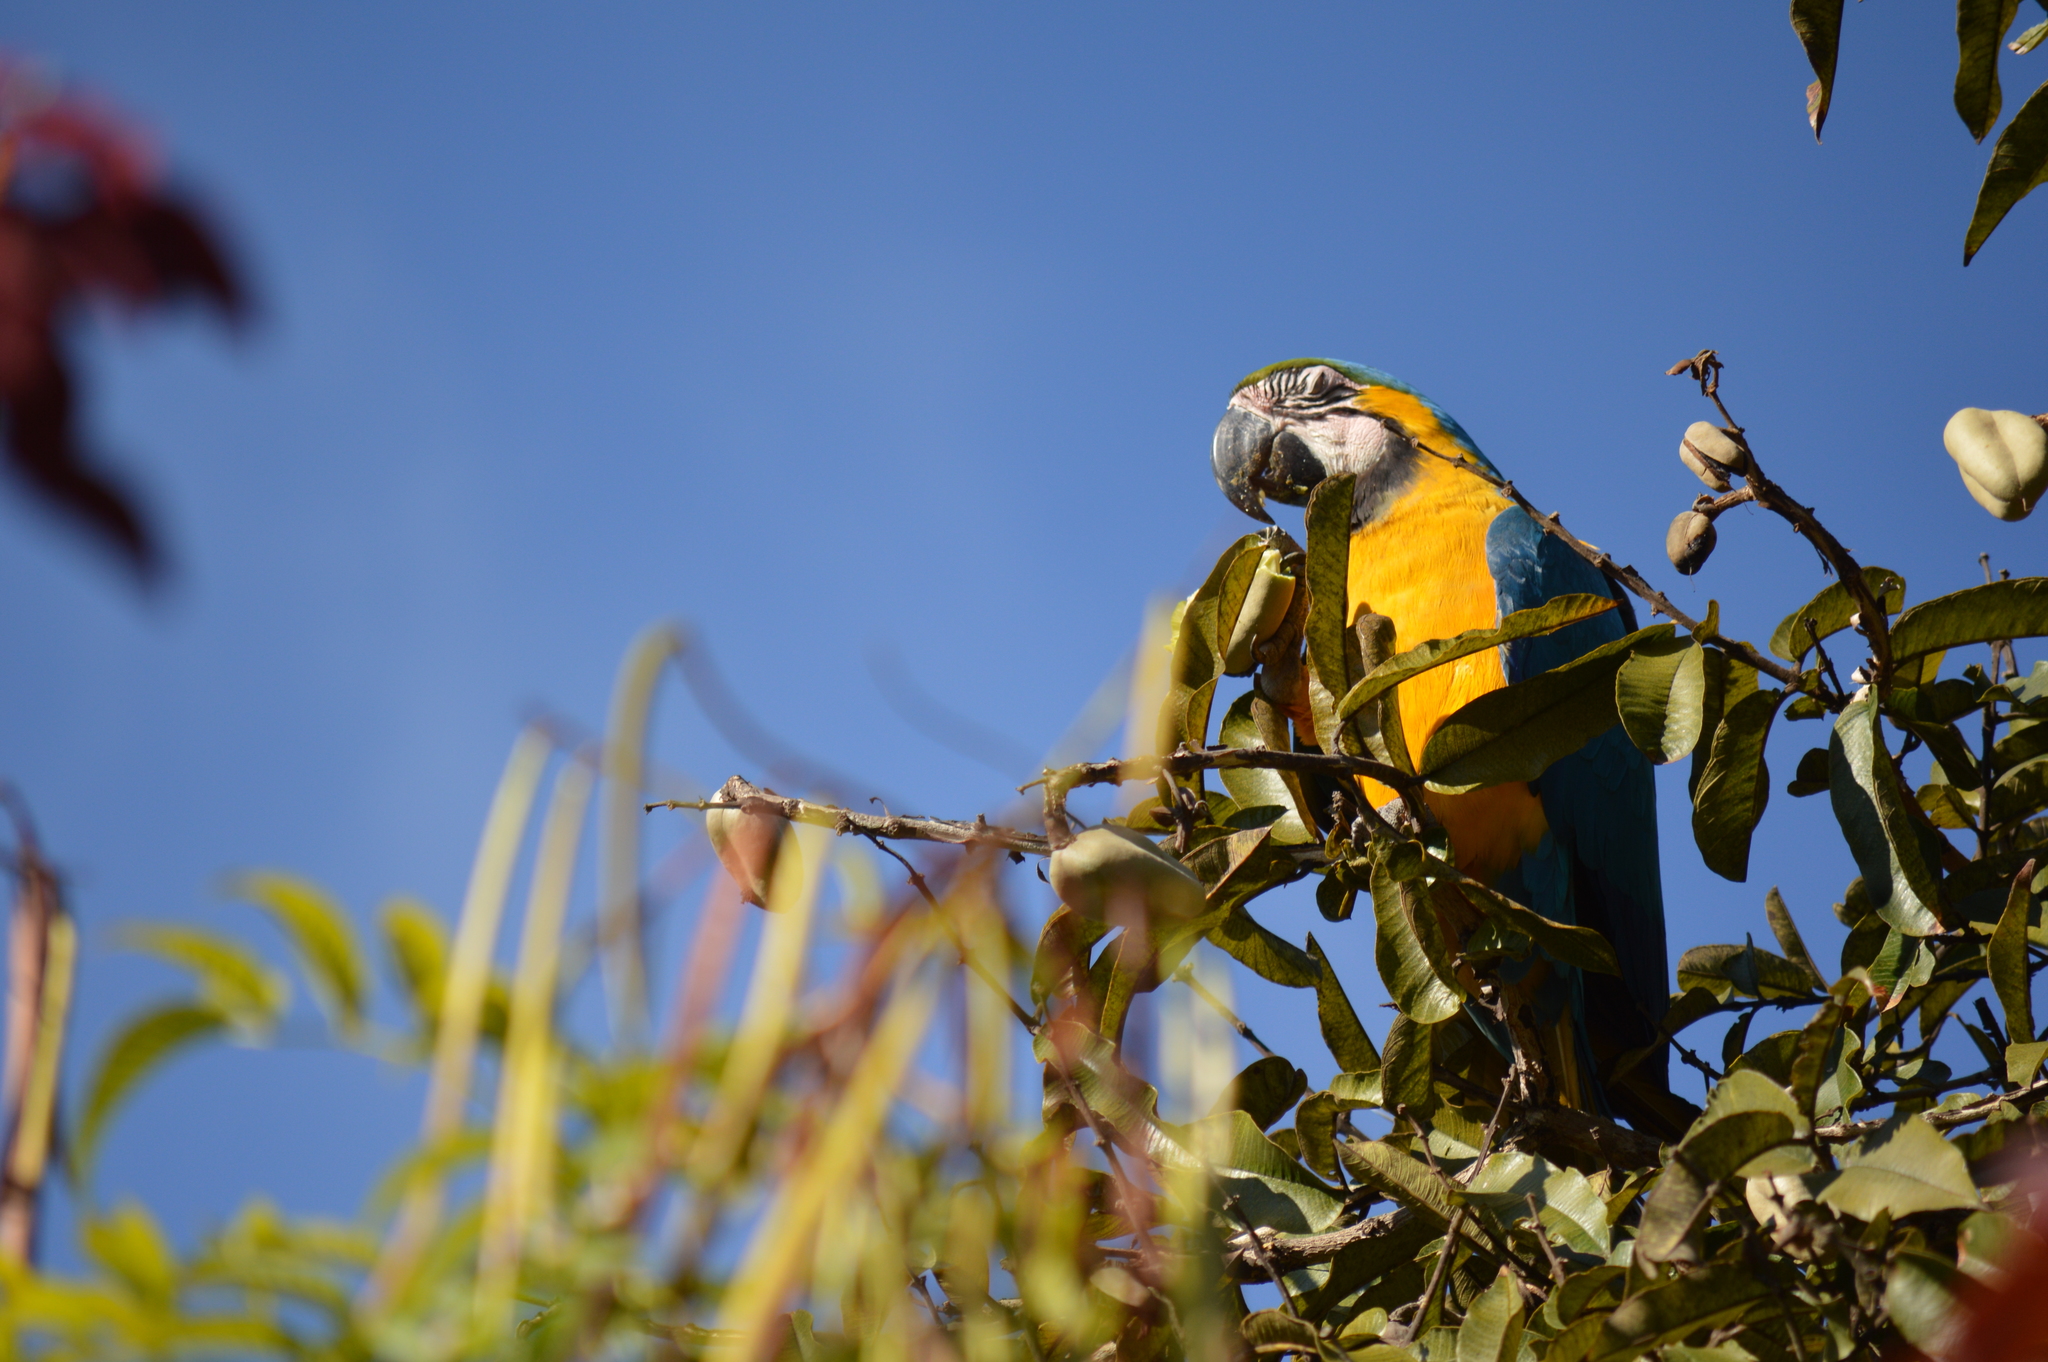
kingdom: Animalia
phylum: Chordata
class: Aves
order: Psittaciformes
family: Psittacidae
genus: Ara
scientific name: Ara ararauna
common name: Blue-and-yellow macaw
